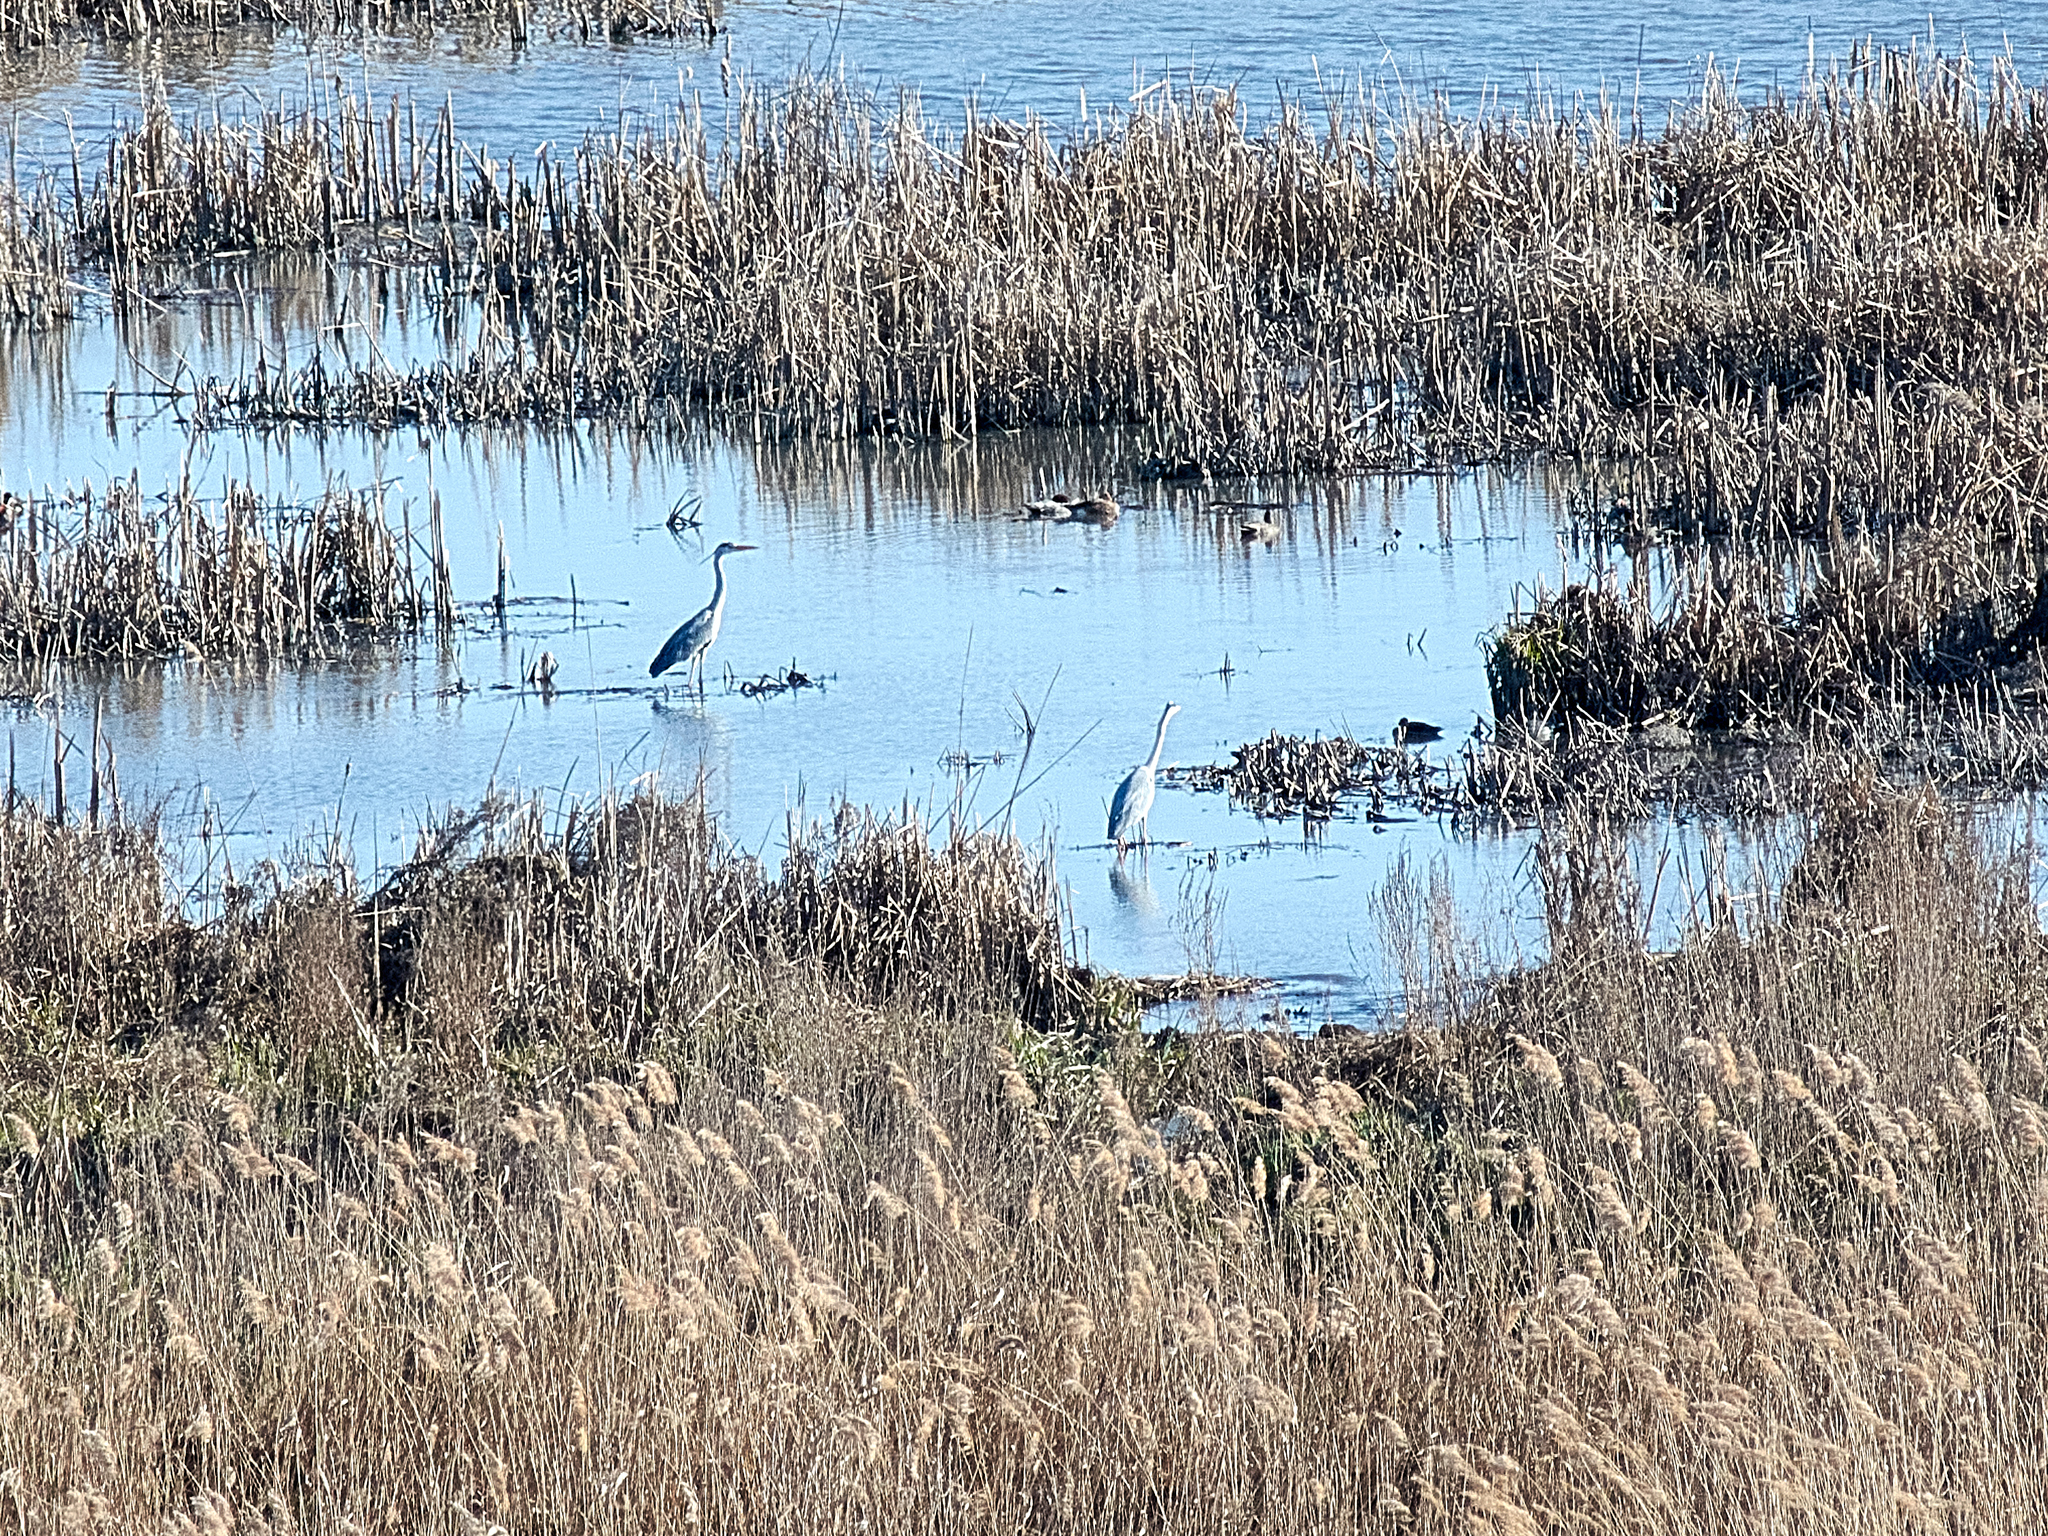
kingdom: Animalia
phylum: Chordata
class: Aves
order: Pelecaniformes
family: Ardeidae
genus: Ardea
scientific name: Ardea cinerea
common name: Grey heron
